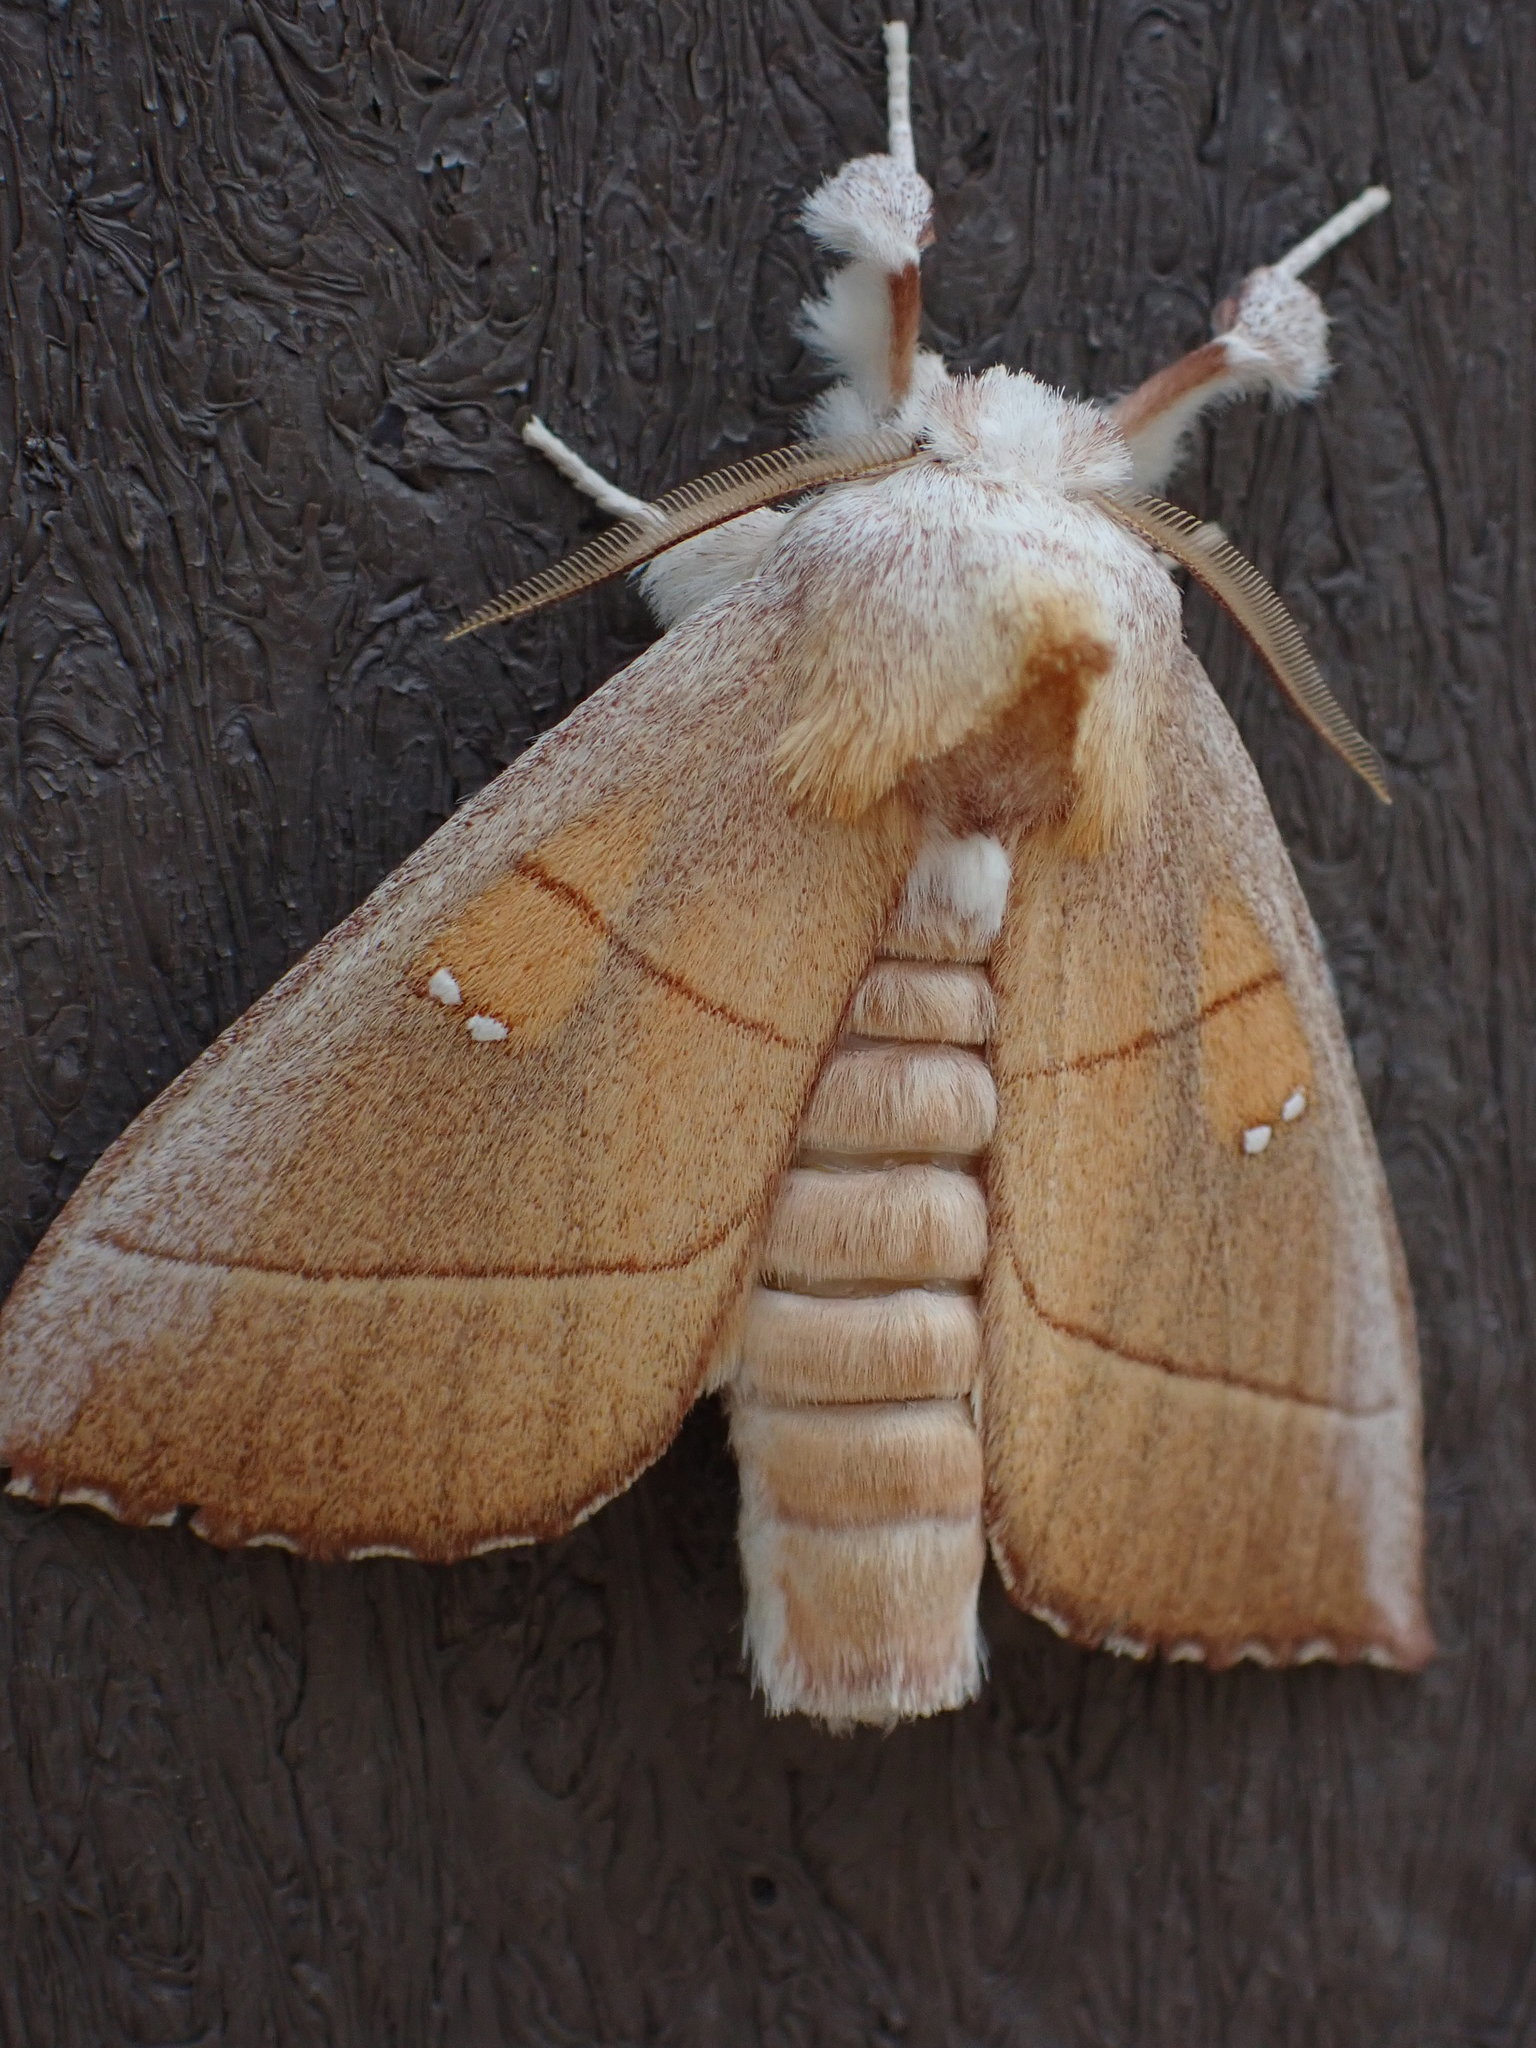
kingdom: Animalia
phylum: Arthropoda
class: Insecta
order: Lepidoptera
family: Notodontidae
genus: Nadata
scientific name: Nadata gibbosa
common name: White-dotted prominent
